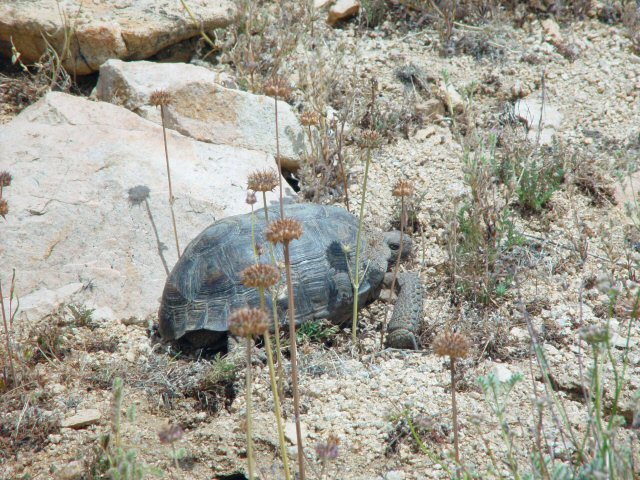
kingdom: Animalia
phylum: Chordata
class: Testudines
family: Testudinidae
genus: Gopherus
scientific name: Gopherus agassizii
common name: Mojave desert tortoise
